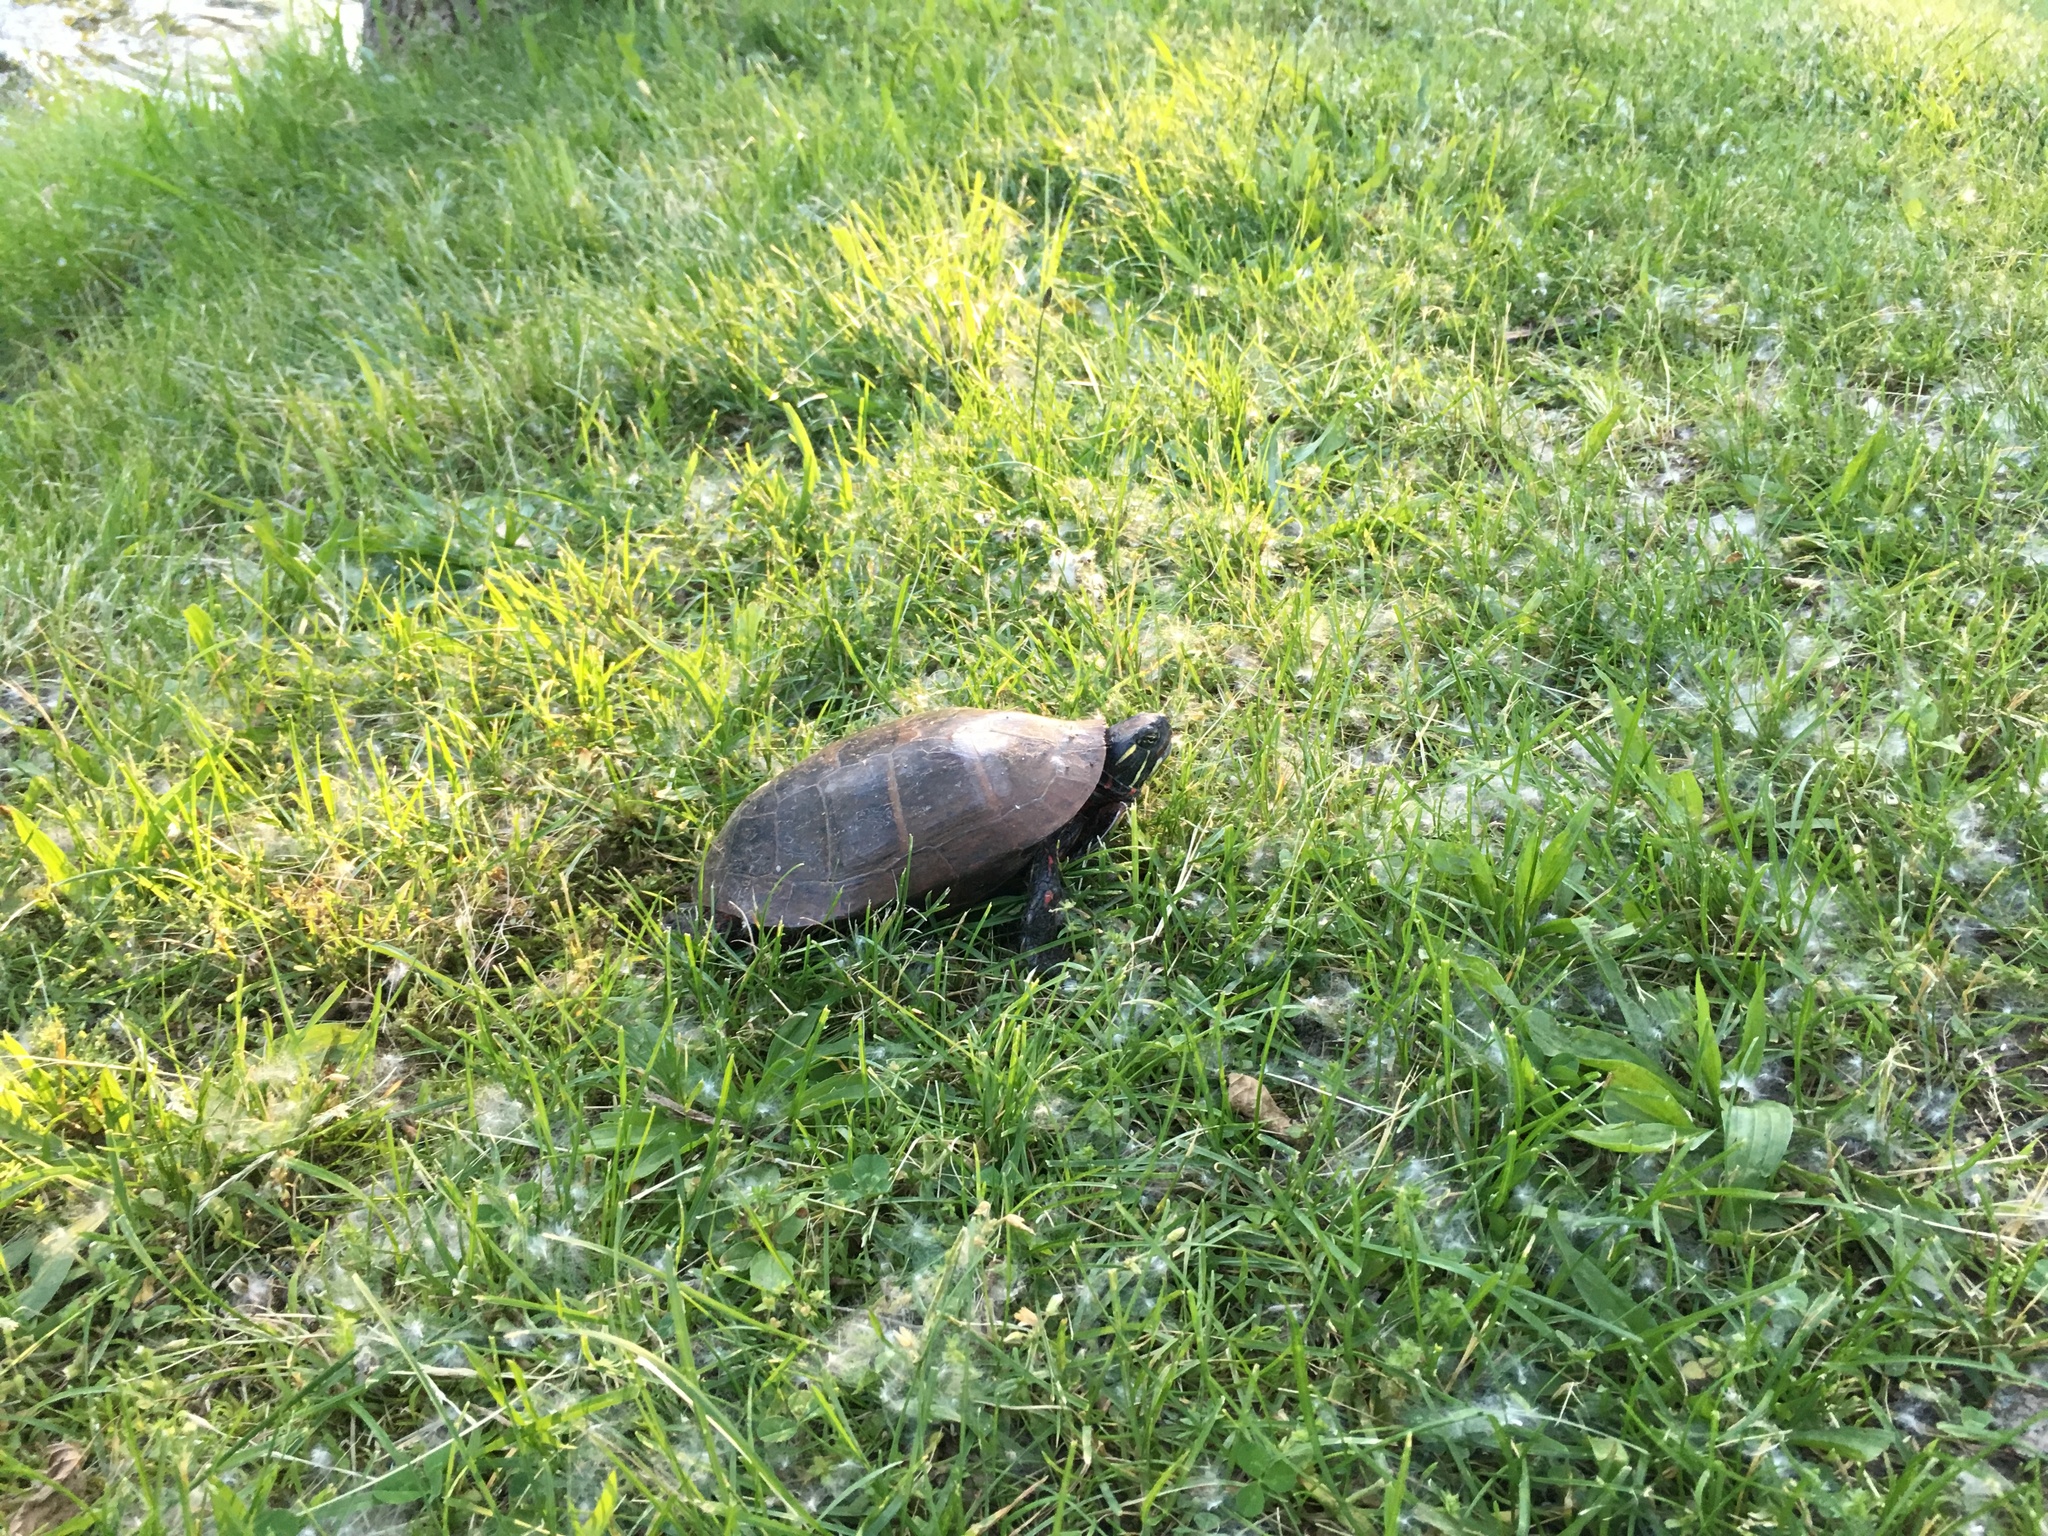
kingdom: Animalia
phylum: Chordata
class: Testudines
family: Emydidae
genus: Chrysemys
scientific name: Chrysemys picta
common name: Painted turtle
